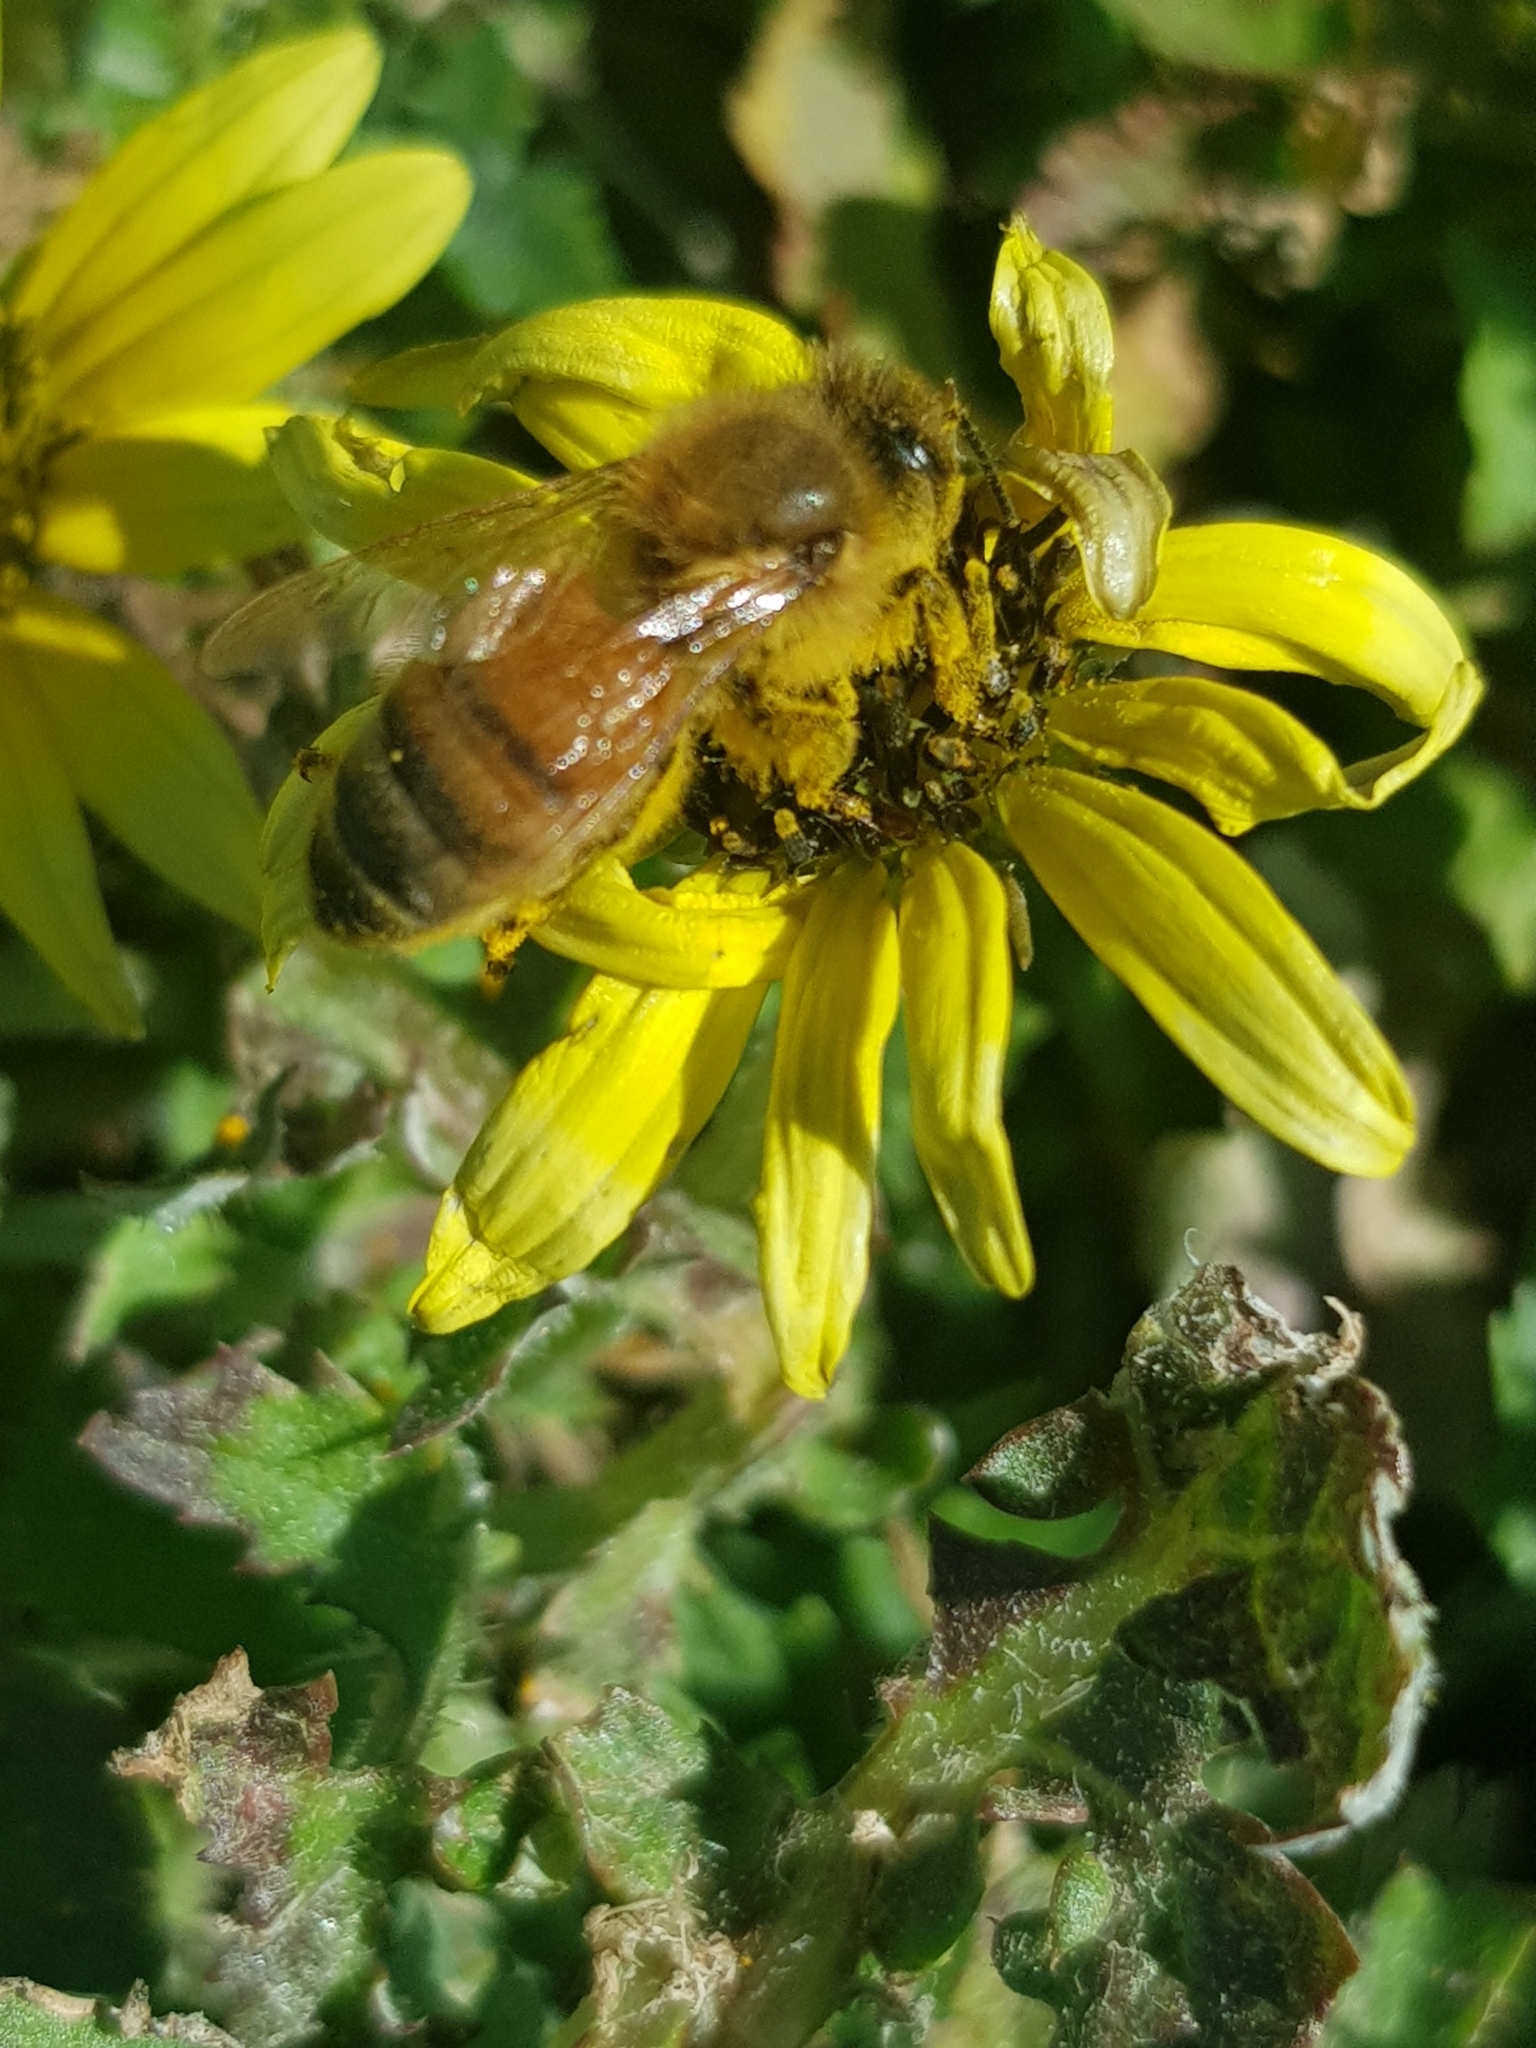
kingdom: Animalia
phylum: Arthropoda
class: Insecta
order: Hymenoptera
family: Apidae
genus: Apis
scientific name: Apis mellifera
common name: Honey bee
